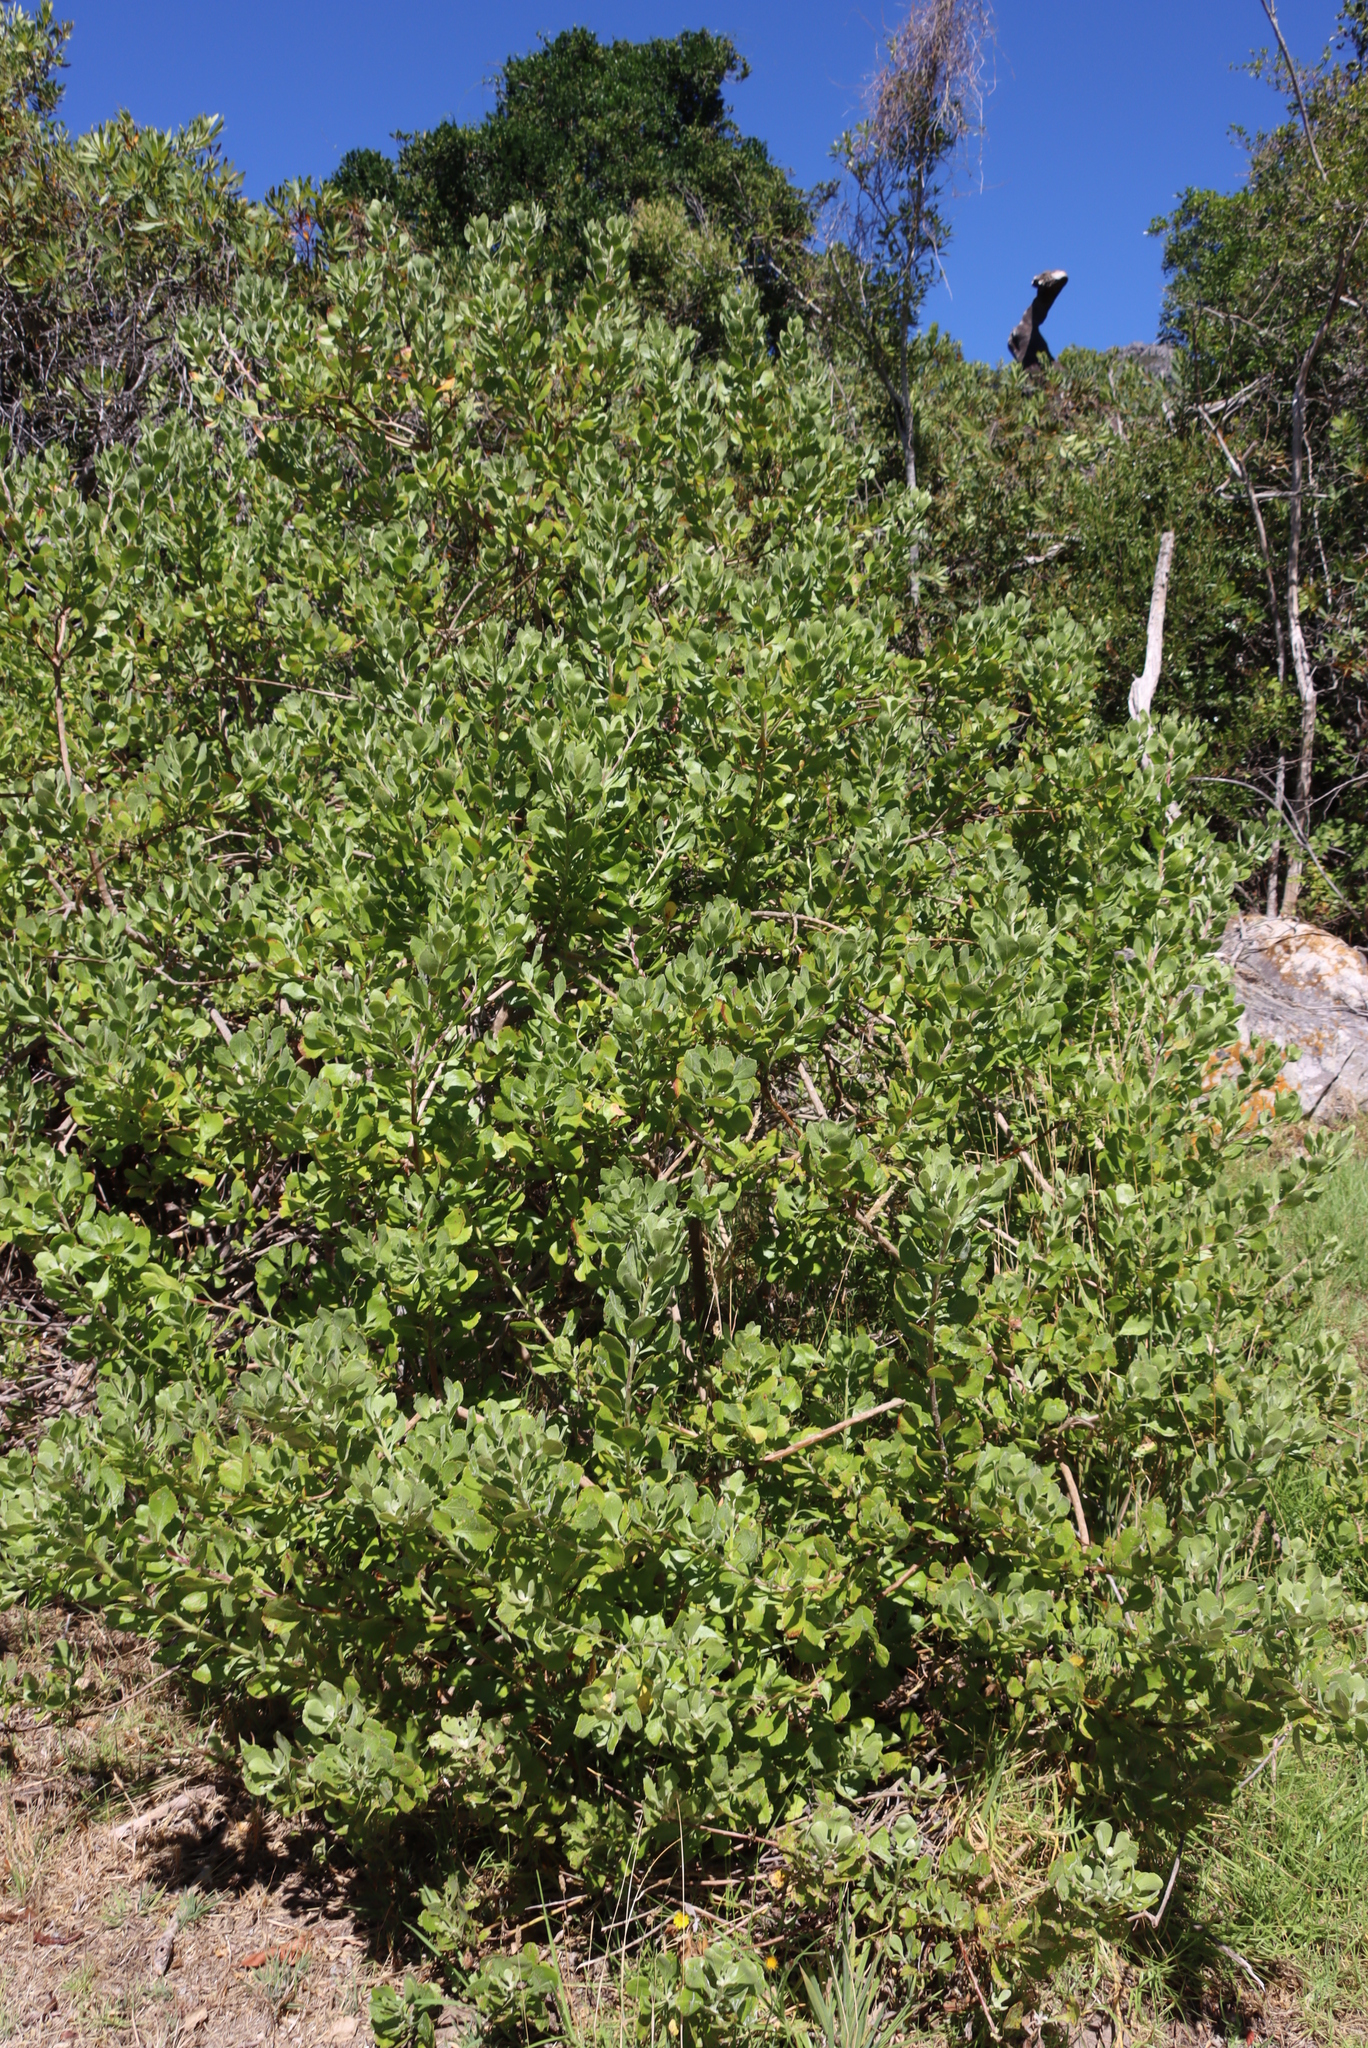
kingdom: Plantae
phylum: Tracheophyta
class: Magnoliopsida
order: Asterales
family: Asteraceae
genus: Osteospermum
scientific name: Osteospermum moniliferum
